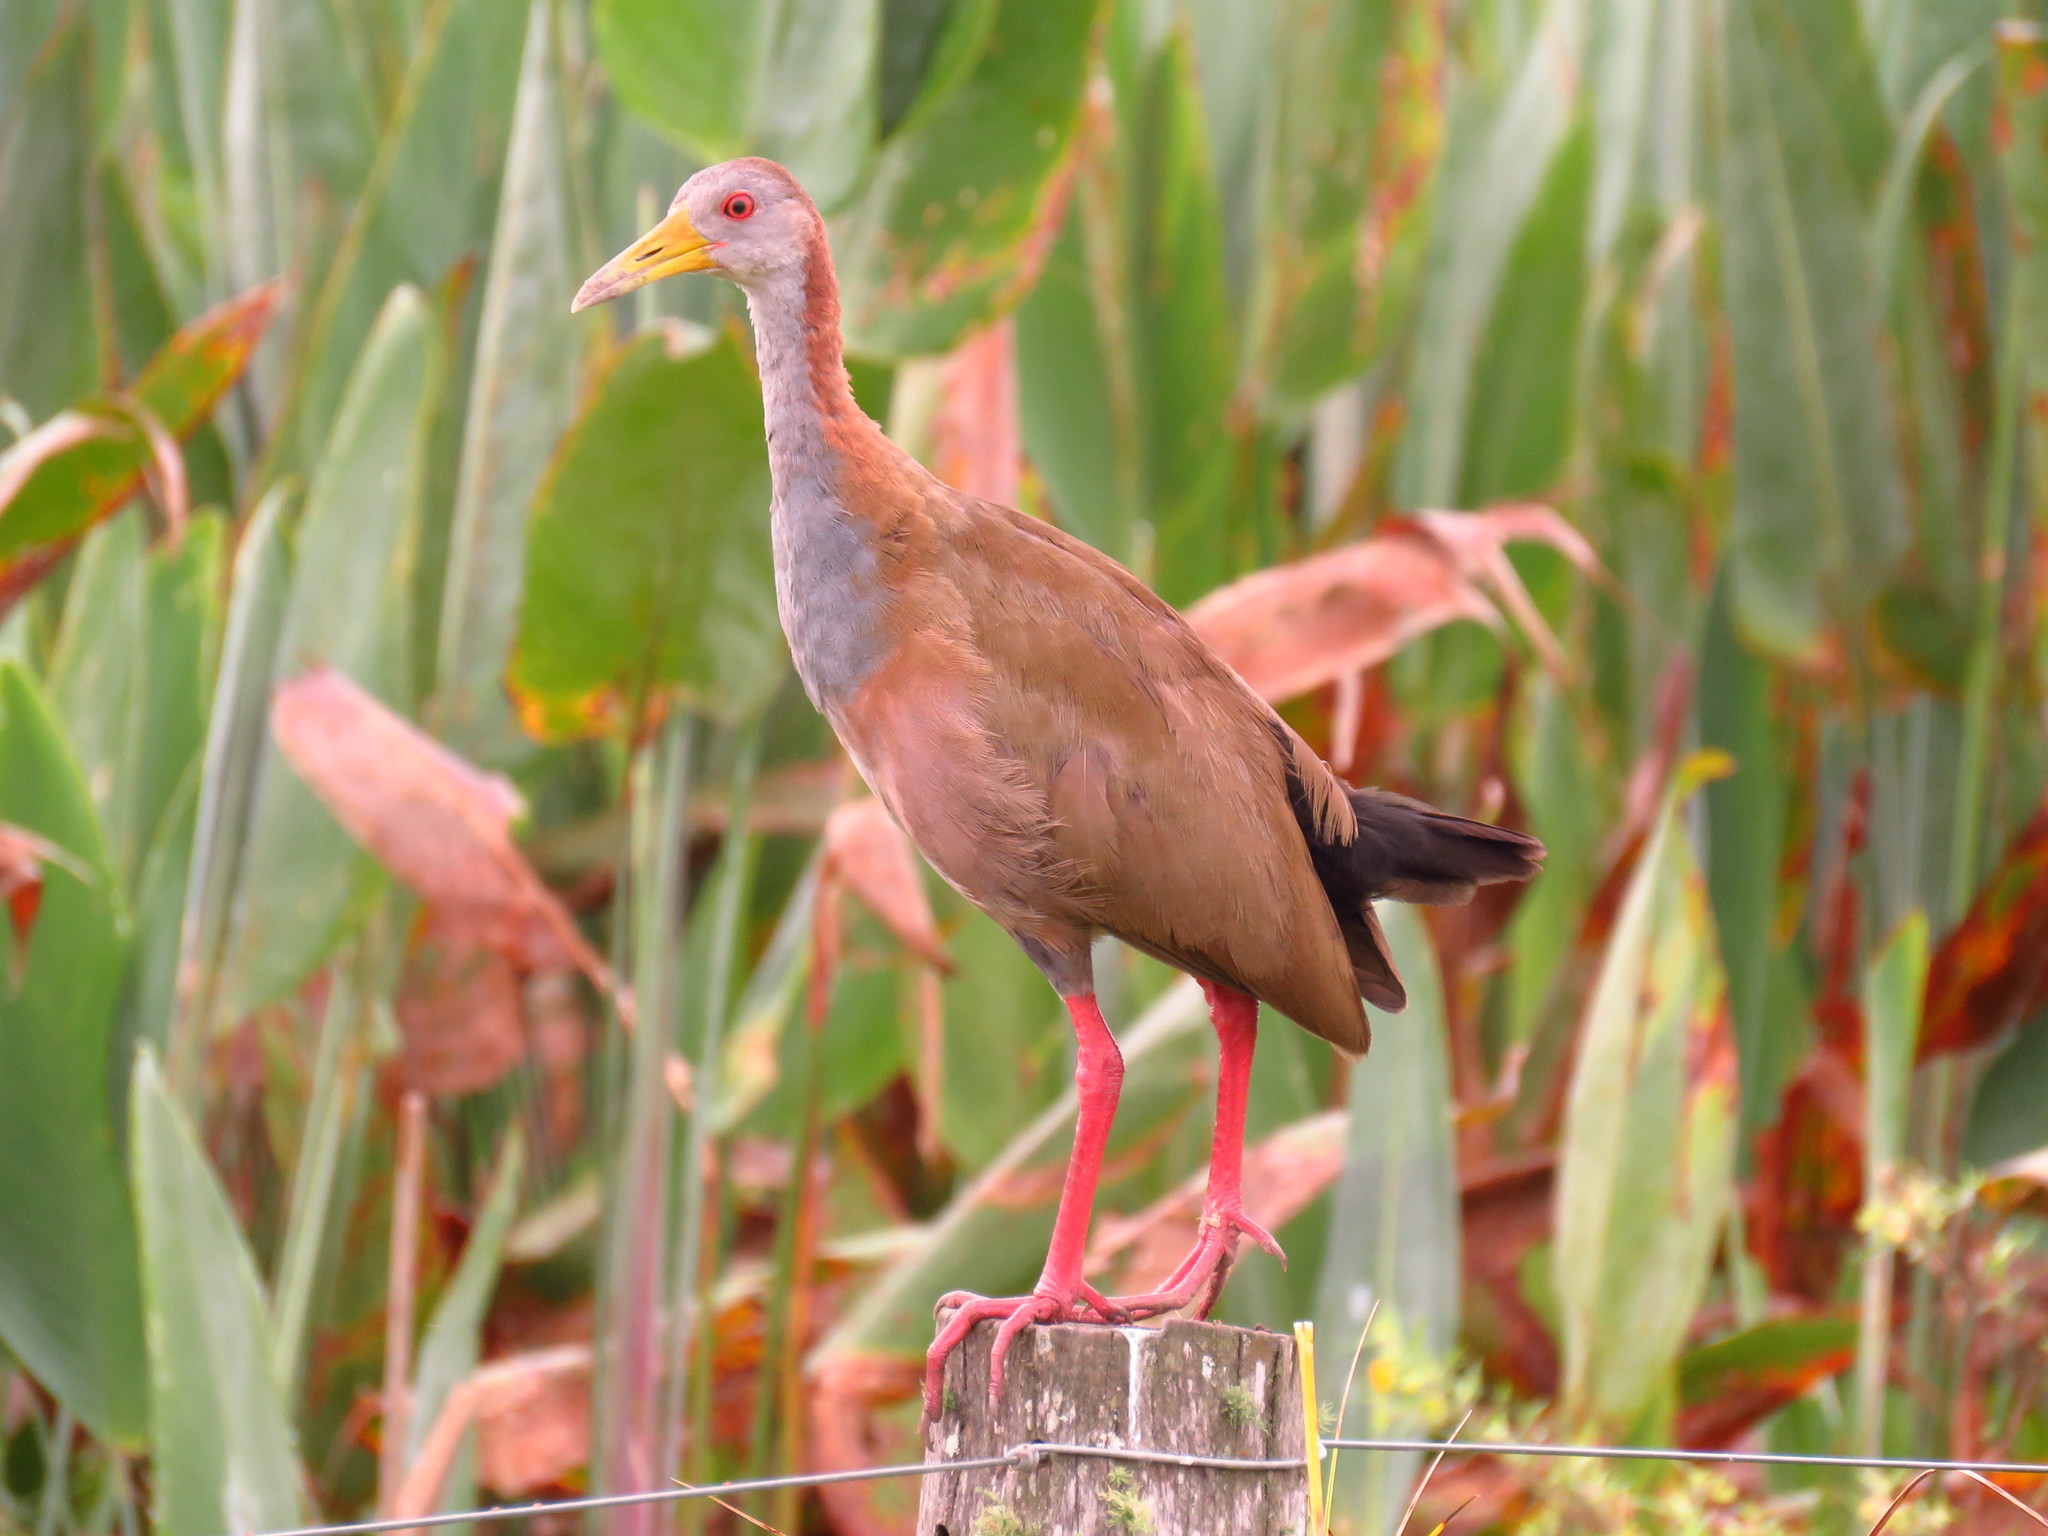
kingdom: Animalia
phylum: Chordata
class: Aves
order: Gruiformes
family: Rallidae
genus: Aramides
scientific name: Aramides ypecaha
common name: Giant wood rail
